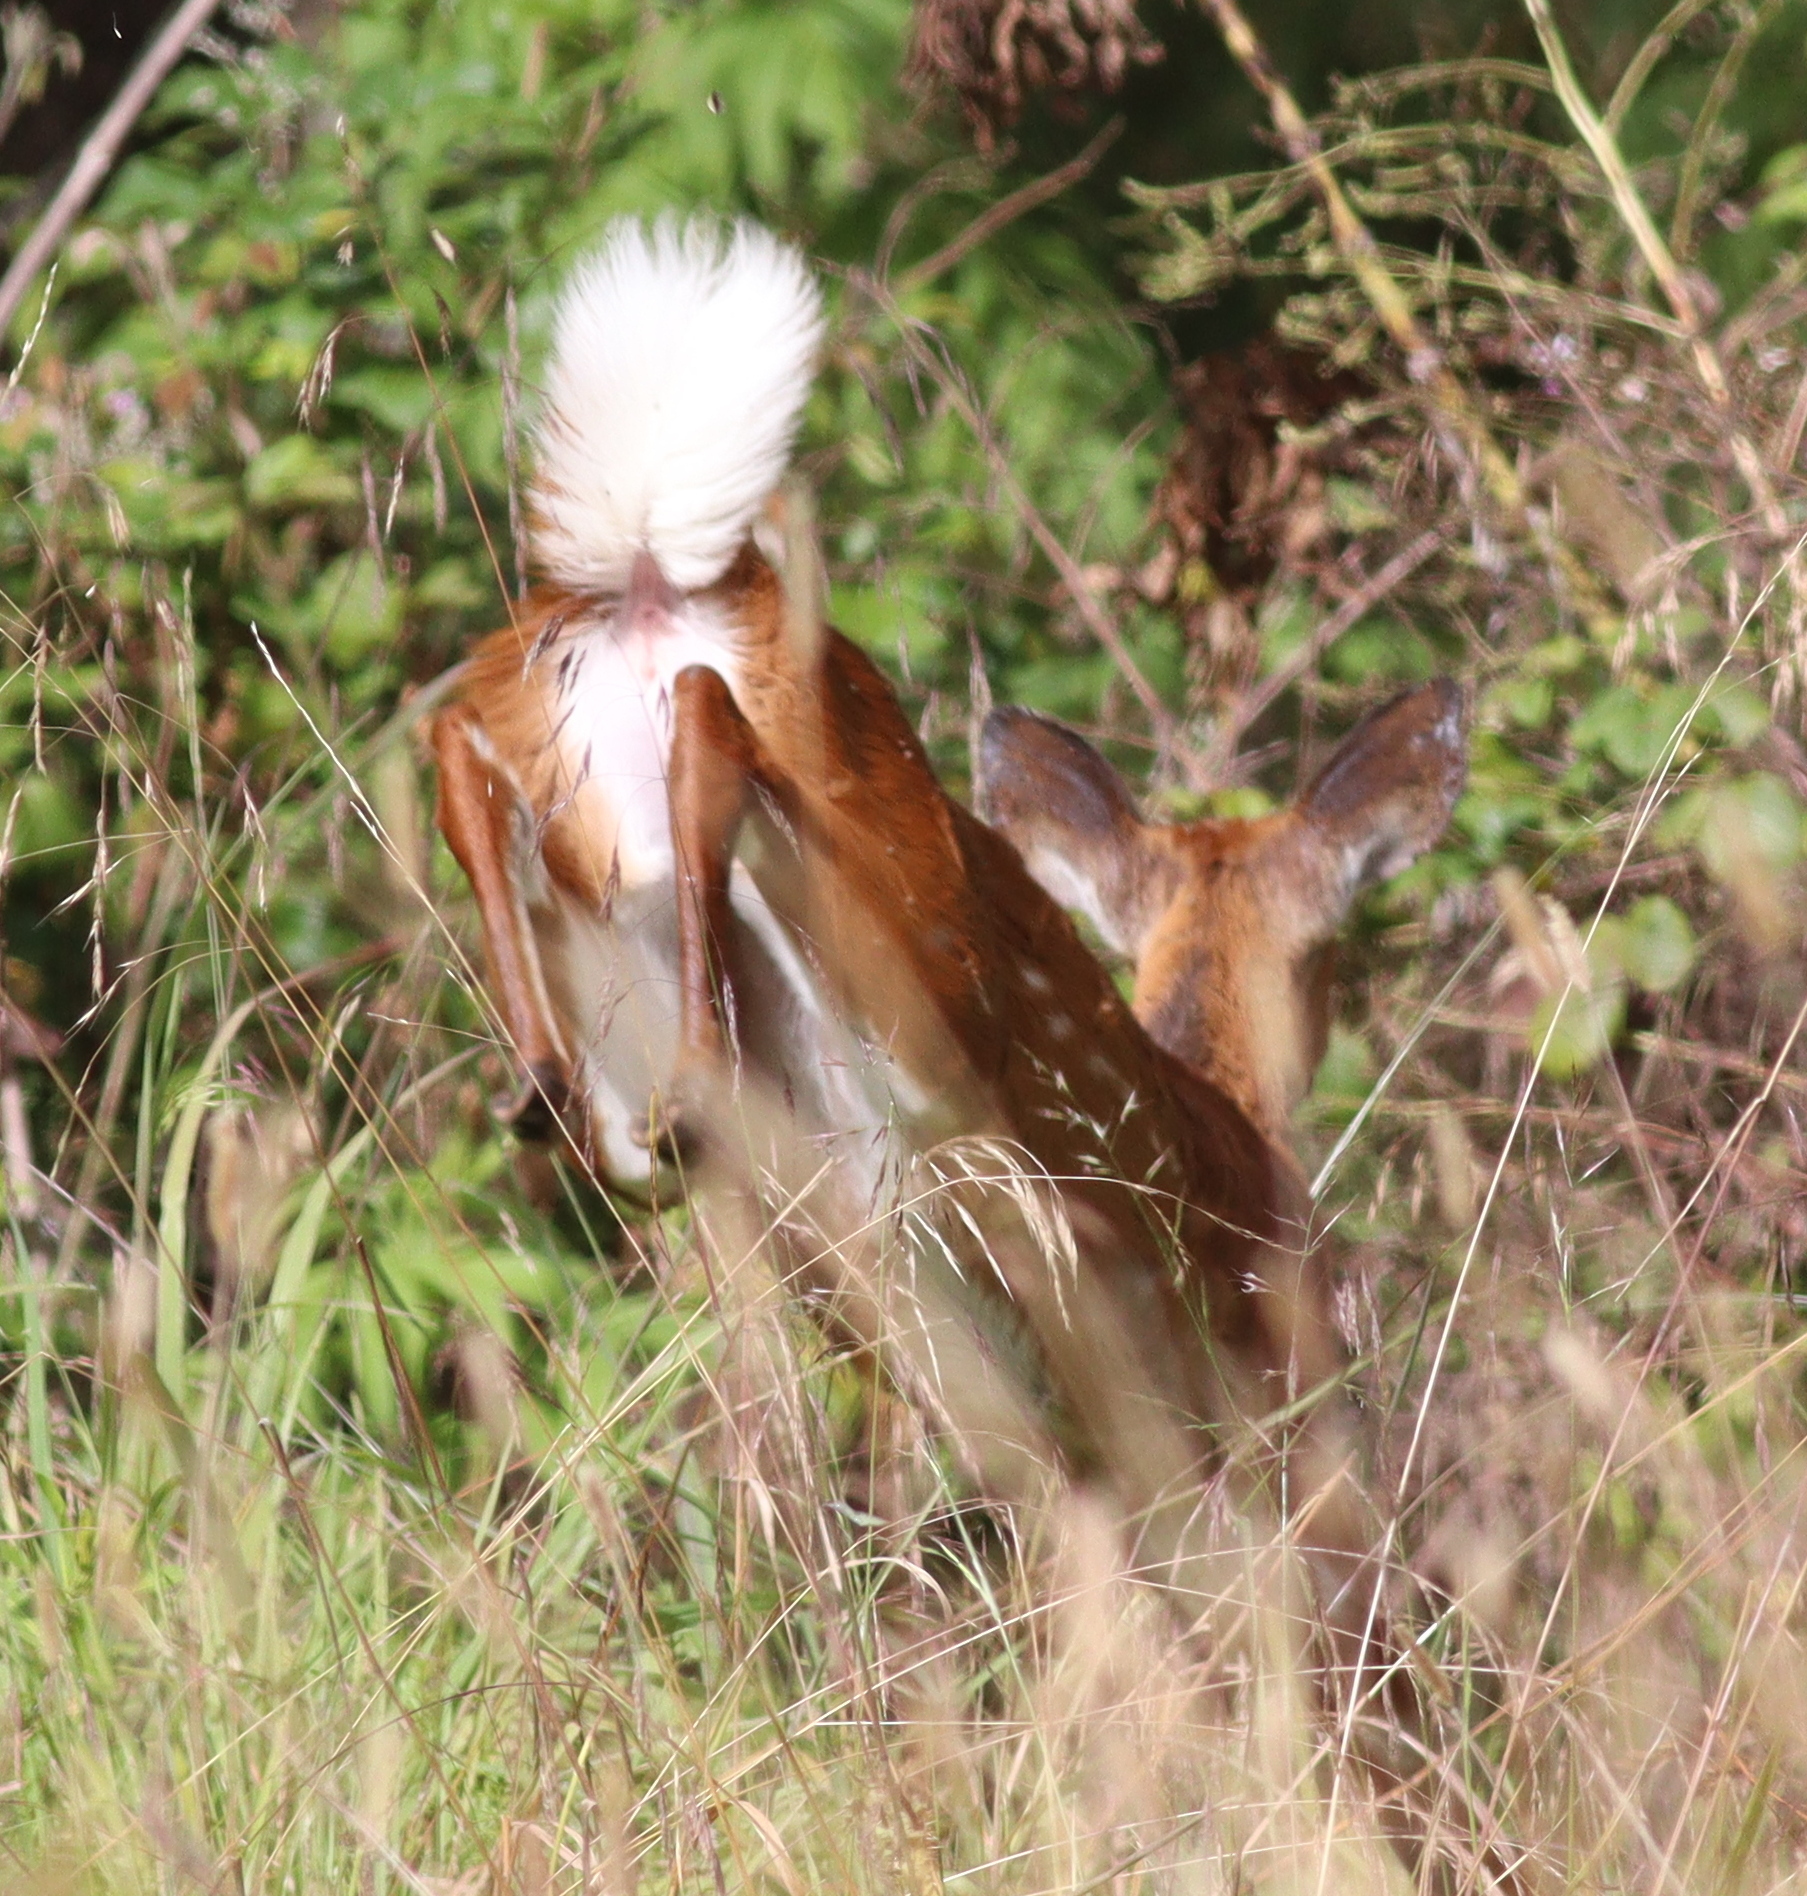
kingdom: Animalia
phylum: Chordata
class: Mammalia
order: Artiodactyla
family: Bovidae
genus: Tragelaphus
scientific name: Tragelaphus scriptus
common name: Bushbuck
